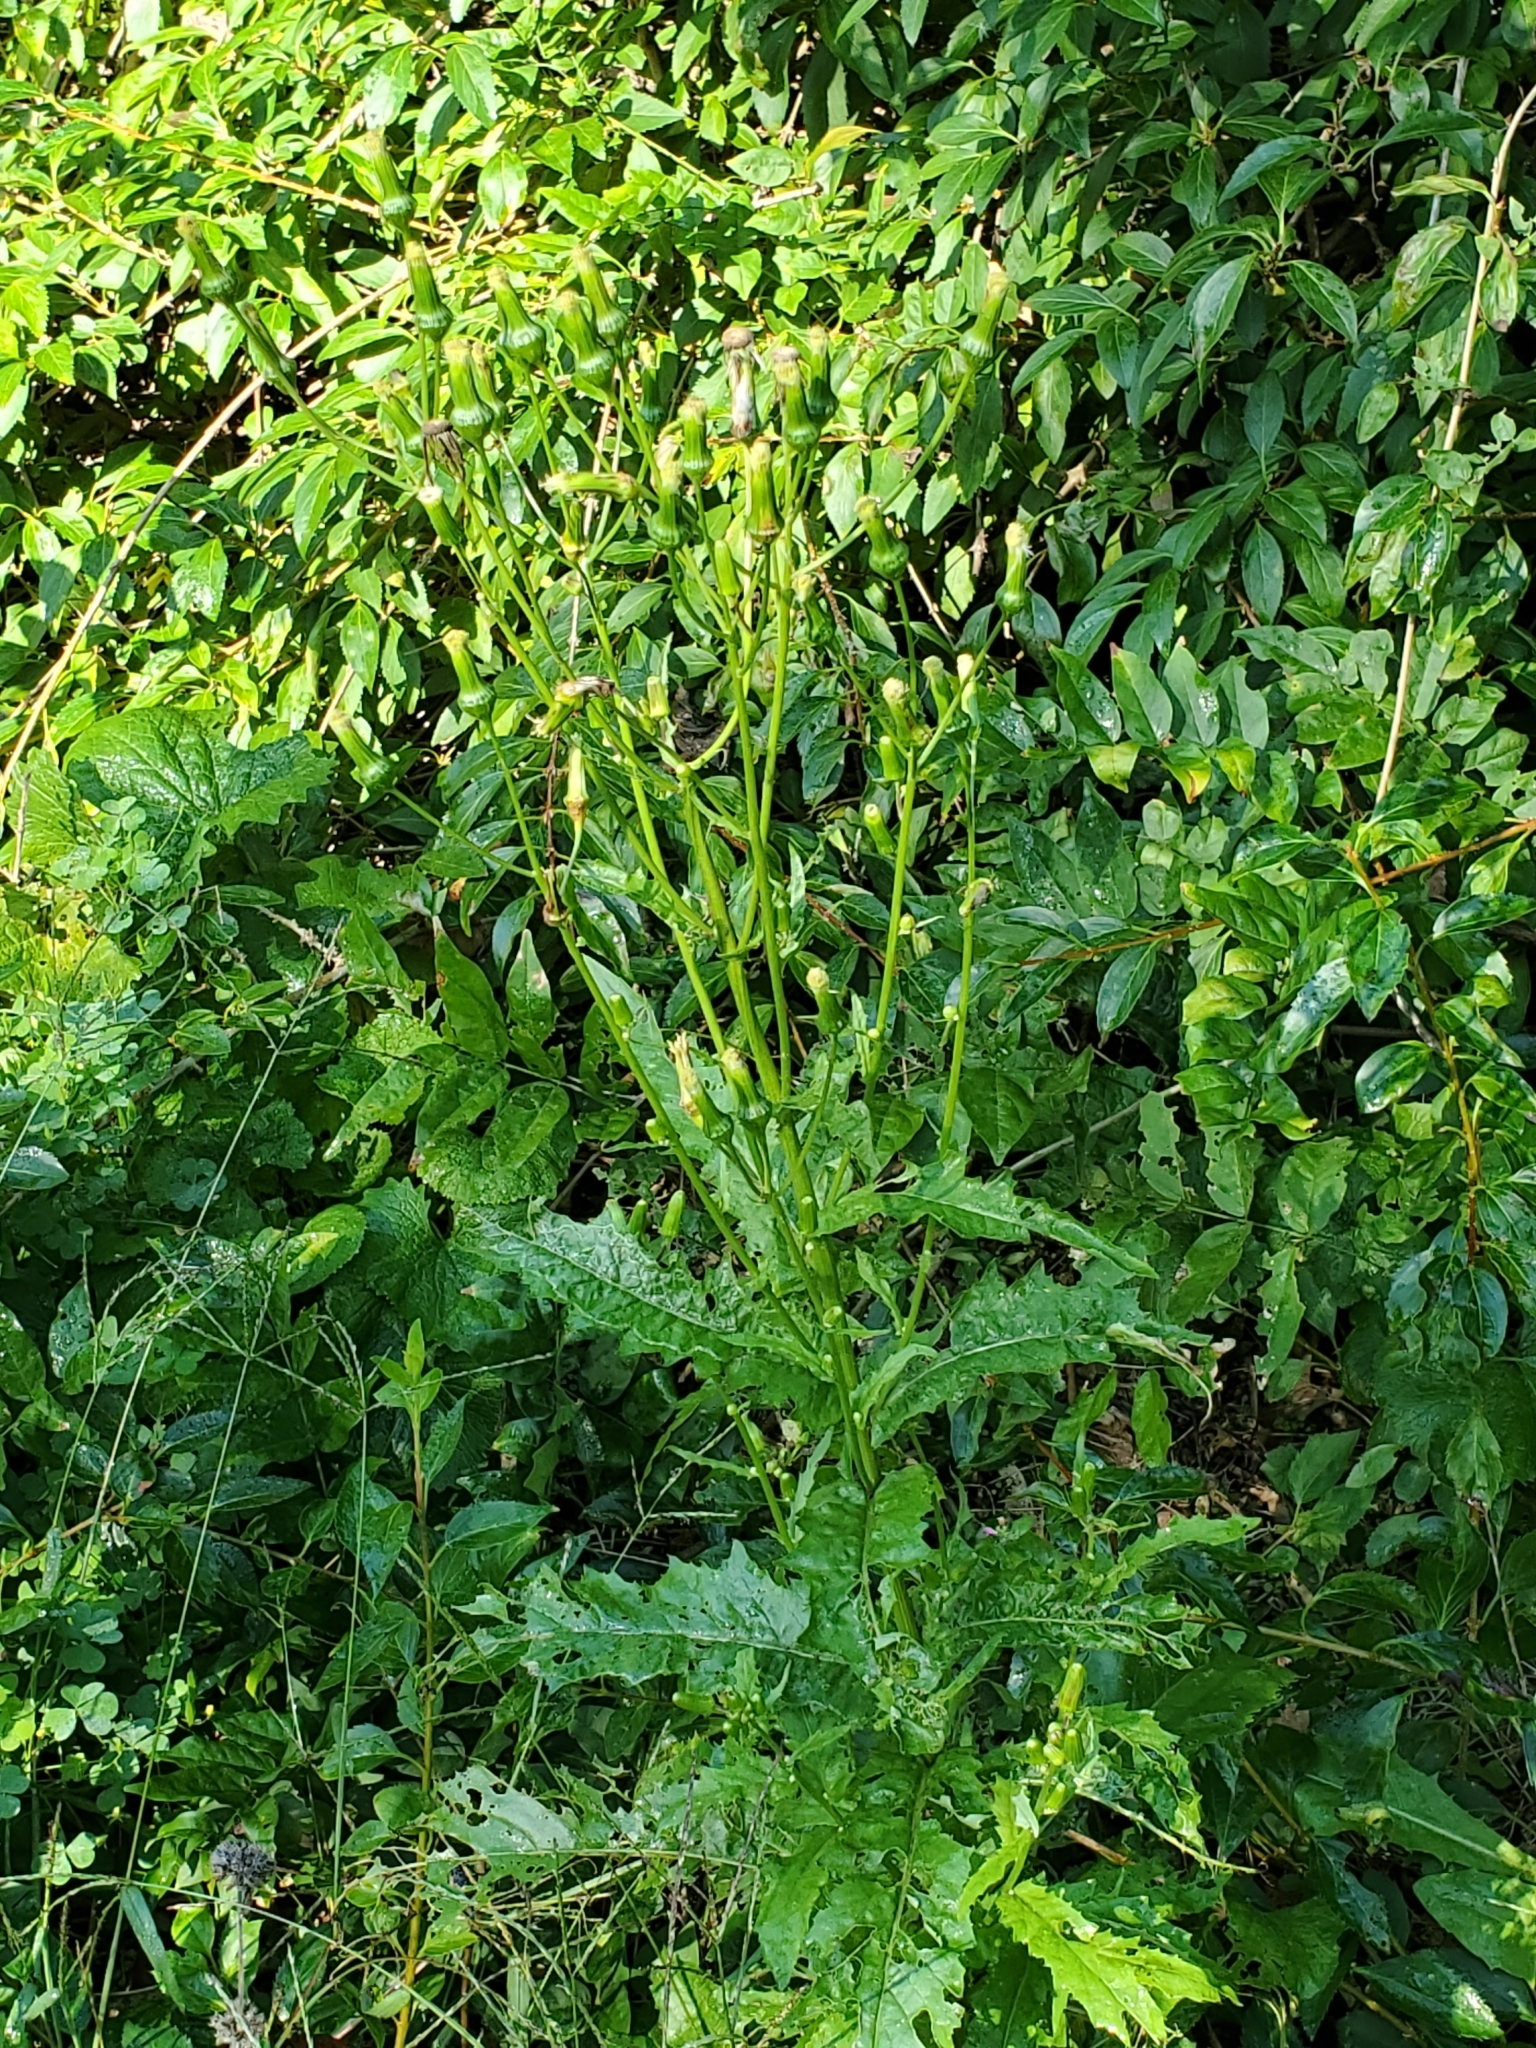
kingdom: Plantae
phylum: Tracheophyta
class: Magnoliopsida
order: Asterales
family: Asteraceae
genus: Erechtites
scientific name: Erechtites hieraciifolius
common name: American burnweed
